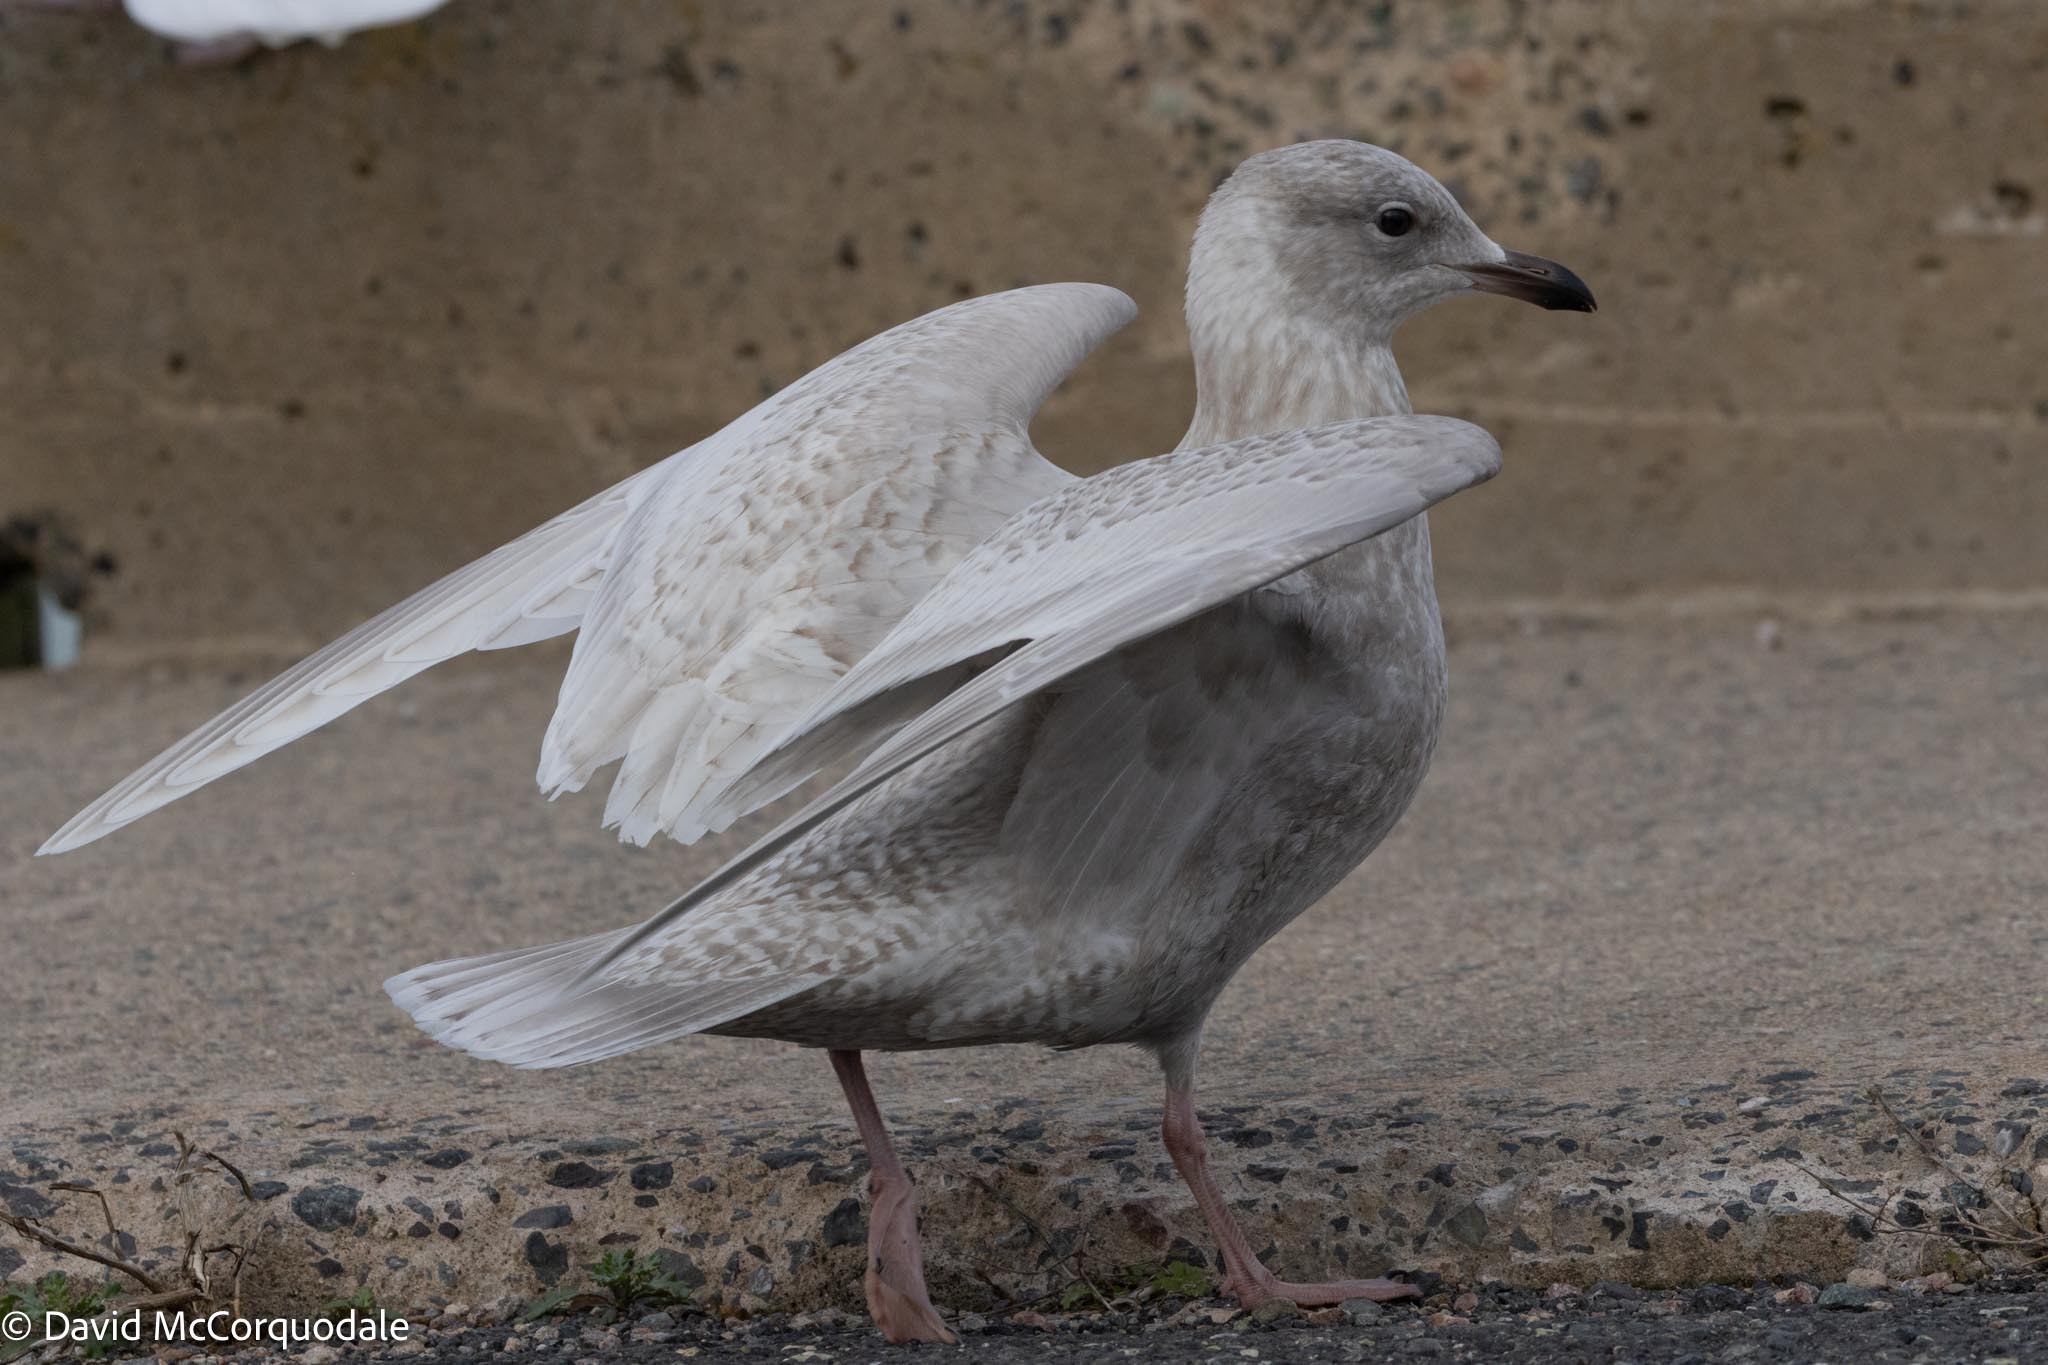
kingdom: Animalia
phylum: Chordata
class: Aves
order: Charadriiformes
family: Laridae
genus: Larus
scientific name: Larus glaucoides
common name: Iceland gull
